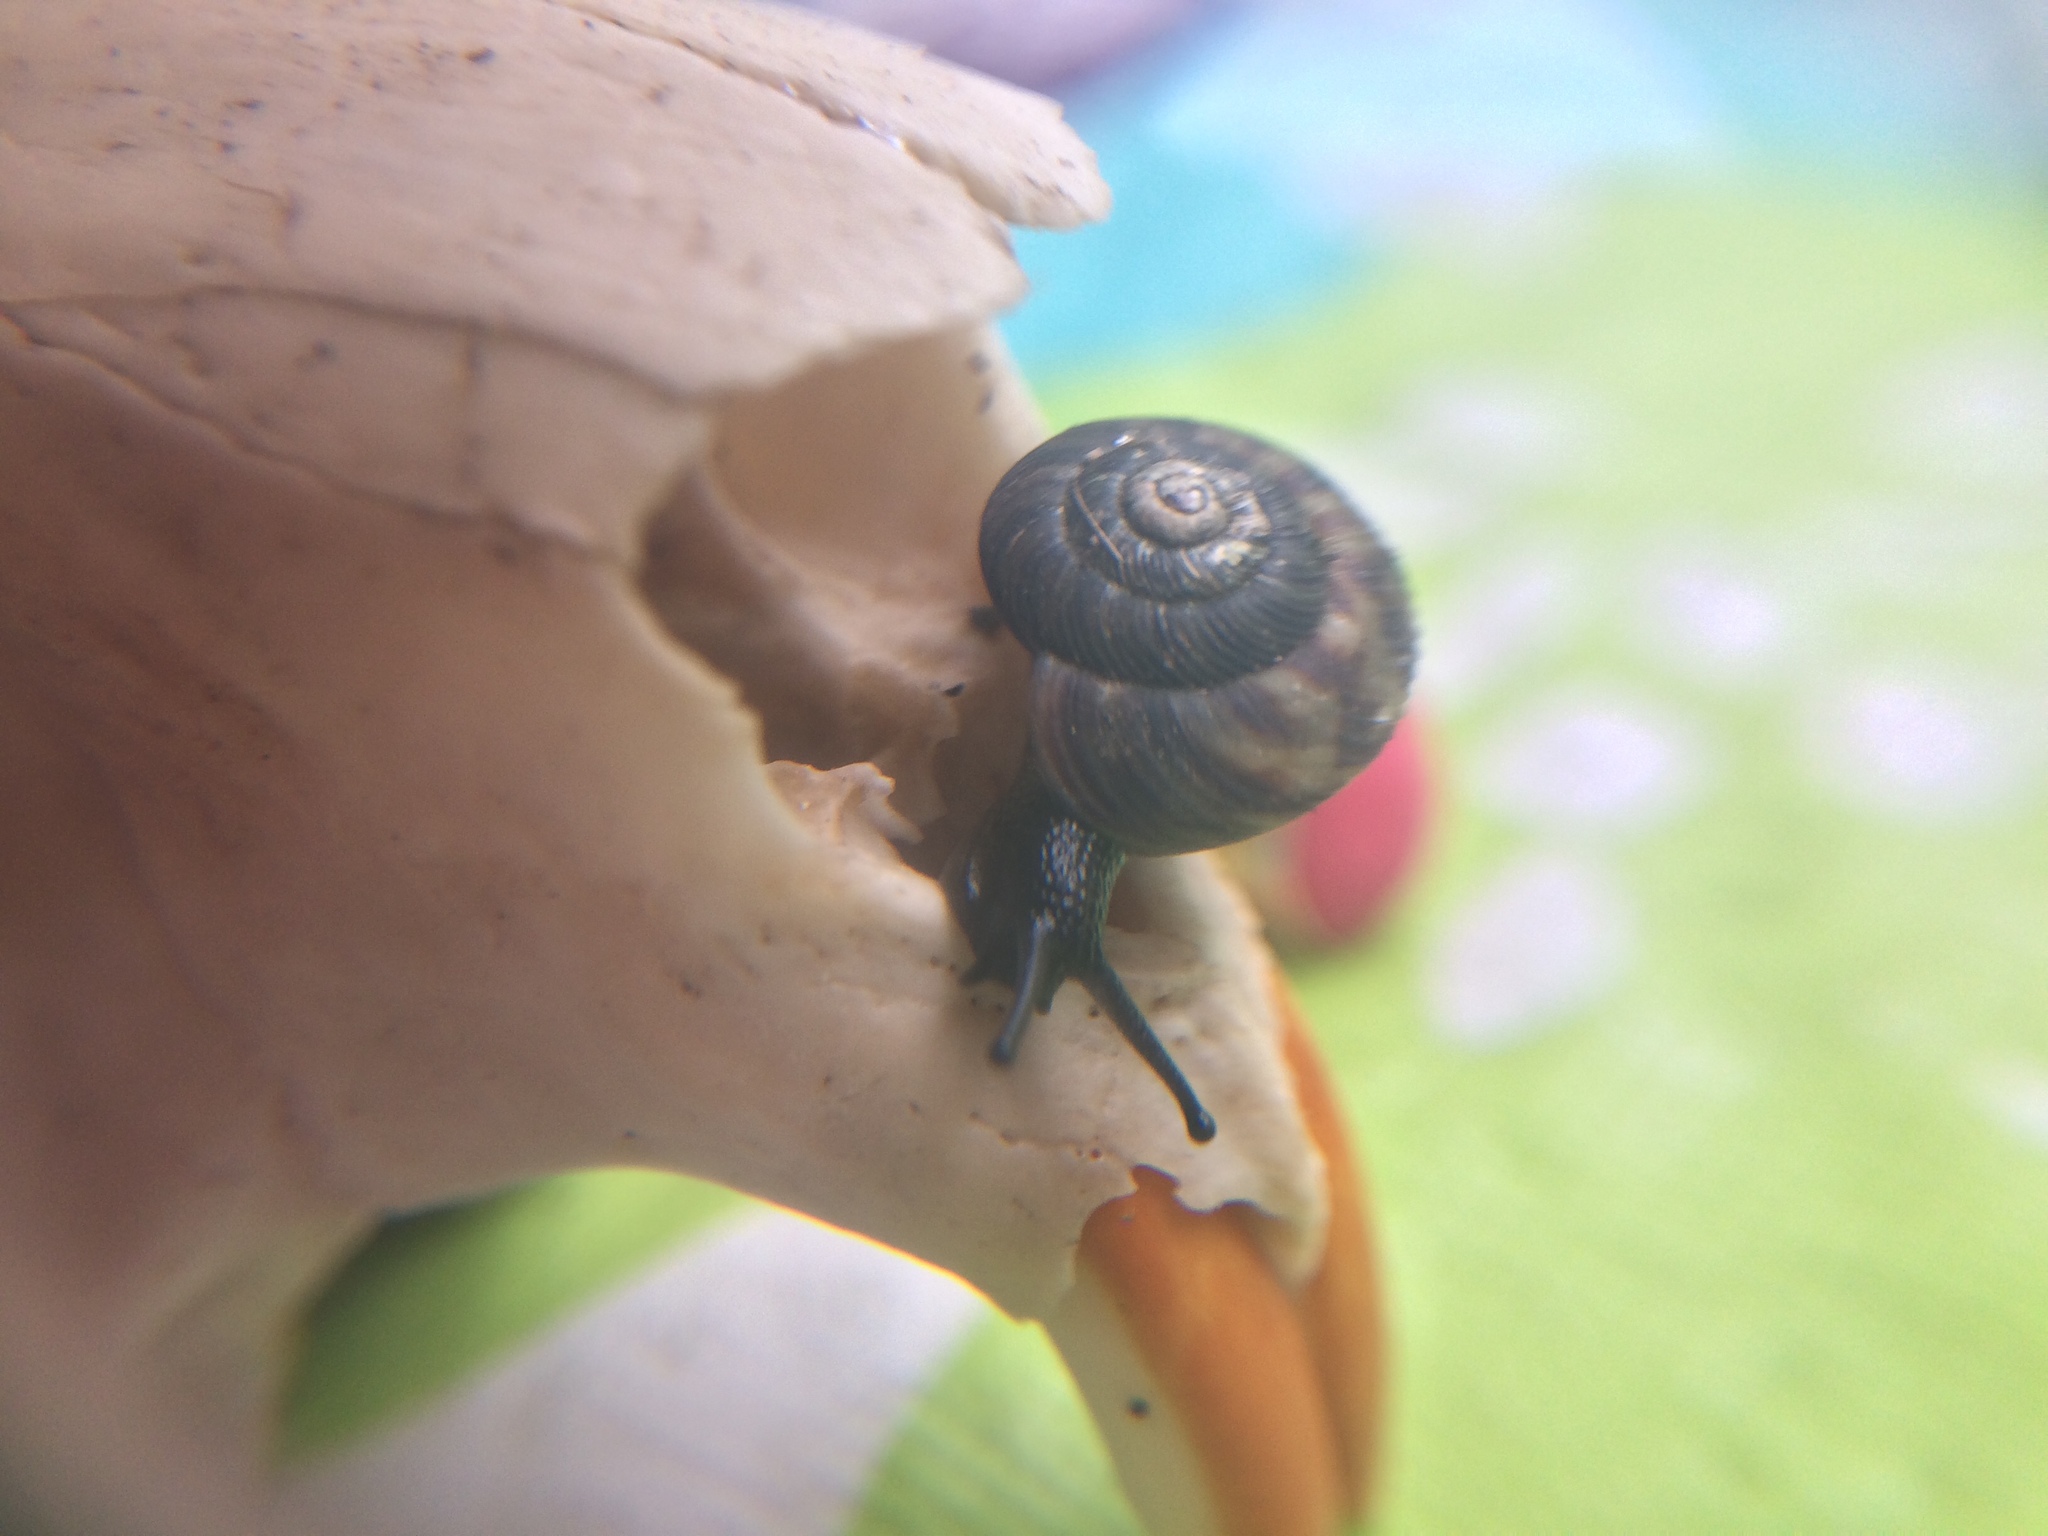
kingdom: Animalia
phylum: Mollusca
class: Gastropoda
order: Stylommatophora
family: Discidae
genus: Anguispira
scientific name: Anguispira alternata
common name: Flamed tigersnail
